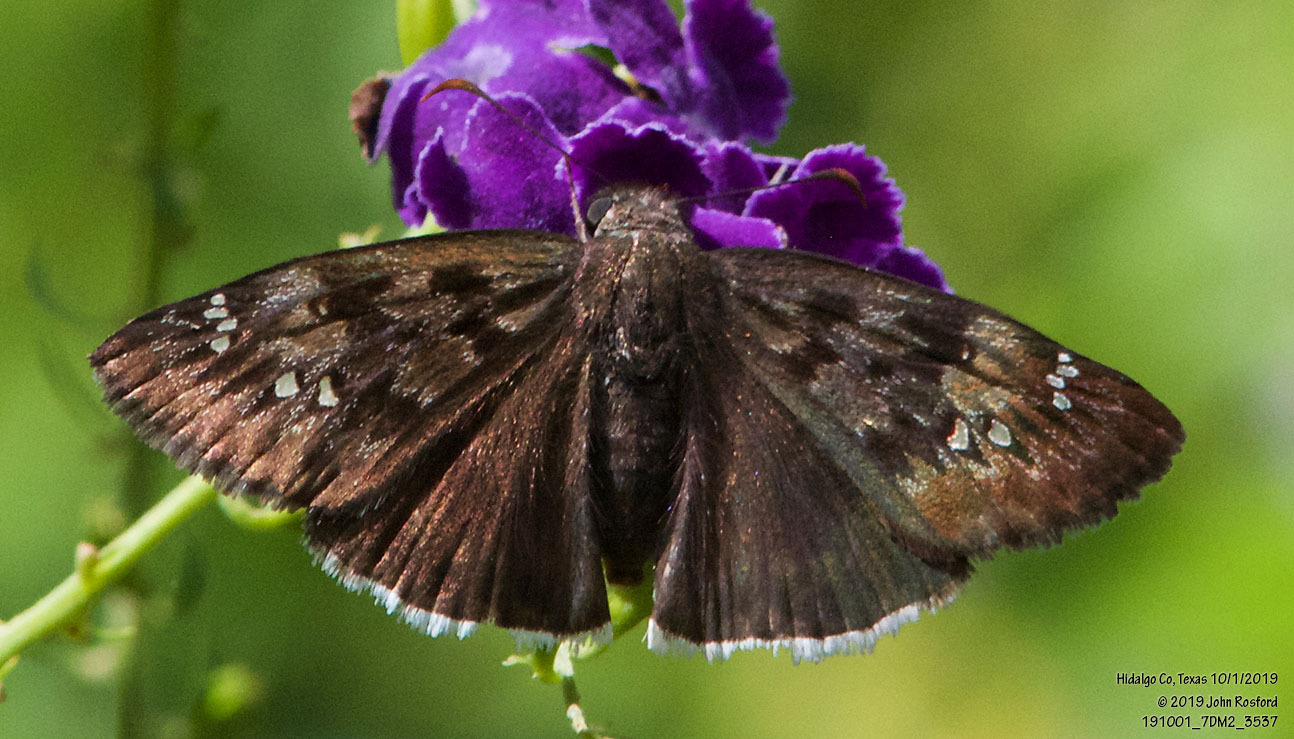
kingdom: Animalia
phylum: Arthropoda
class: Insecta
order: Lepidoptera
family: Hesperiidae
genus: Erynnis
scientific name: Erynnis tristis
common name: Mournful duskywing
